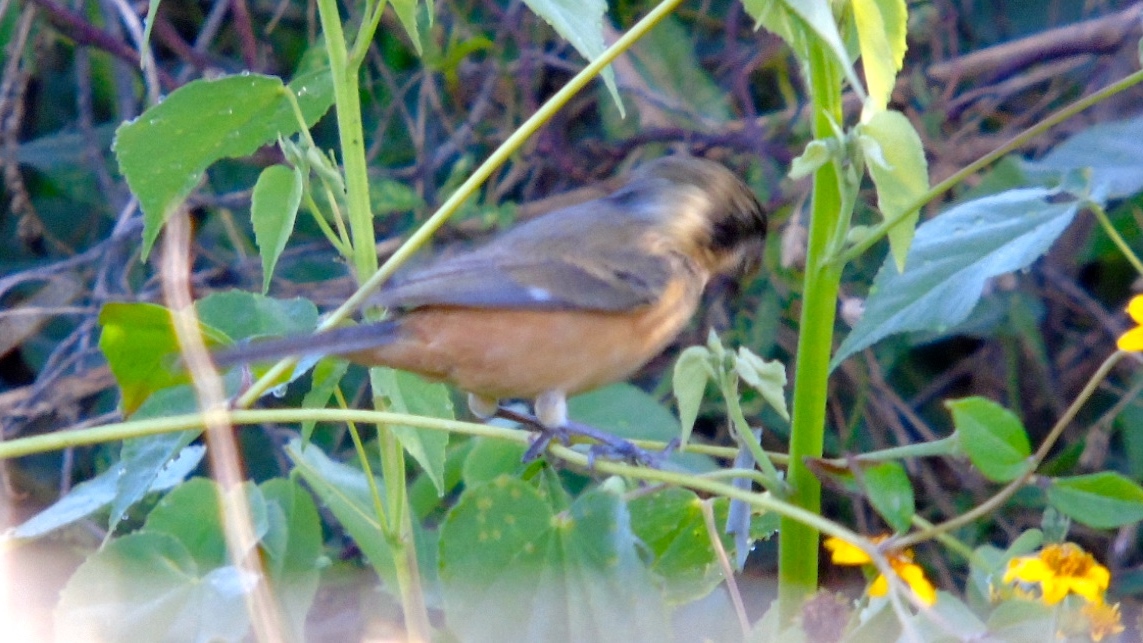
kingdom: Animalia
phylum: Chordata
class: Aves
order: Passeriformes
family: Thraupidae
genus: Sporophila
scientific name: Sporophila torqueola
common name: White-collared seedeater
